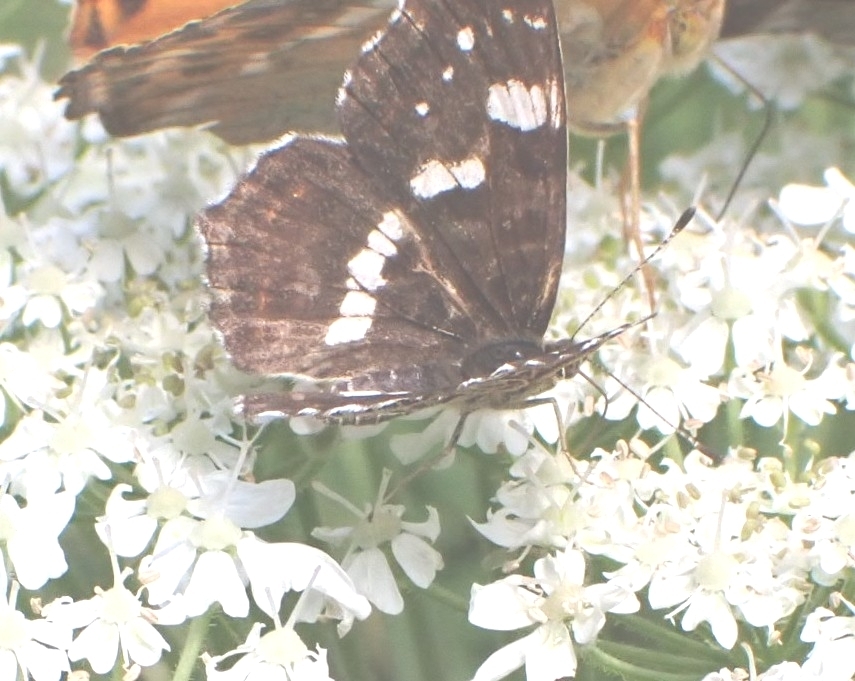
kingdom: Animalia
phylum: Arthropoda
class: Insecta
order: Lepidoptera
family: Nymphalidae
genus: Araschnia
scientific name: Araschnia levana
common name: Map butterfly
